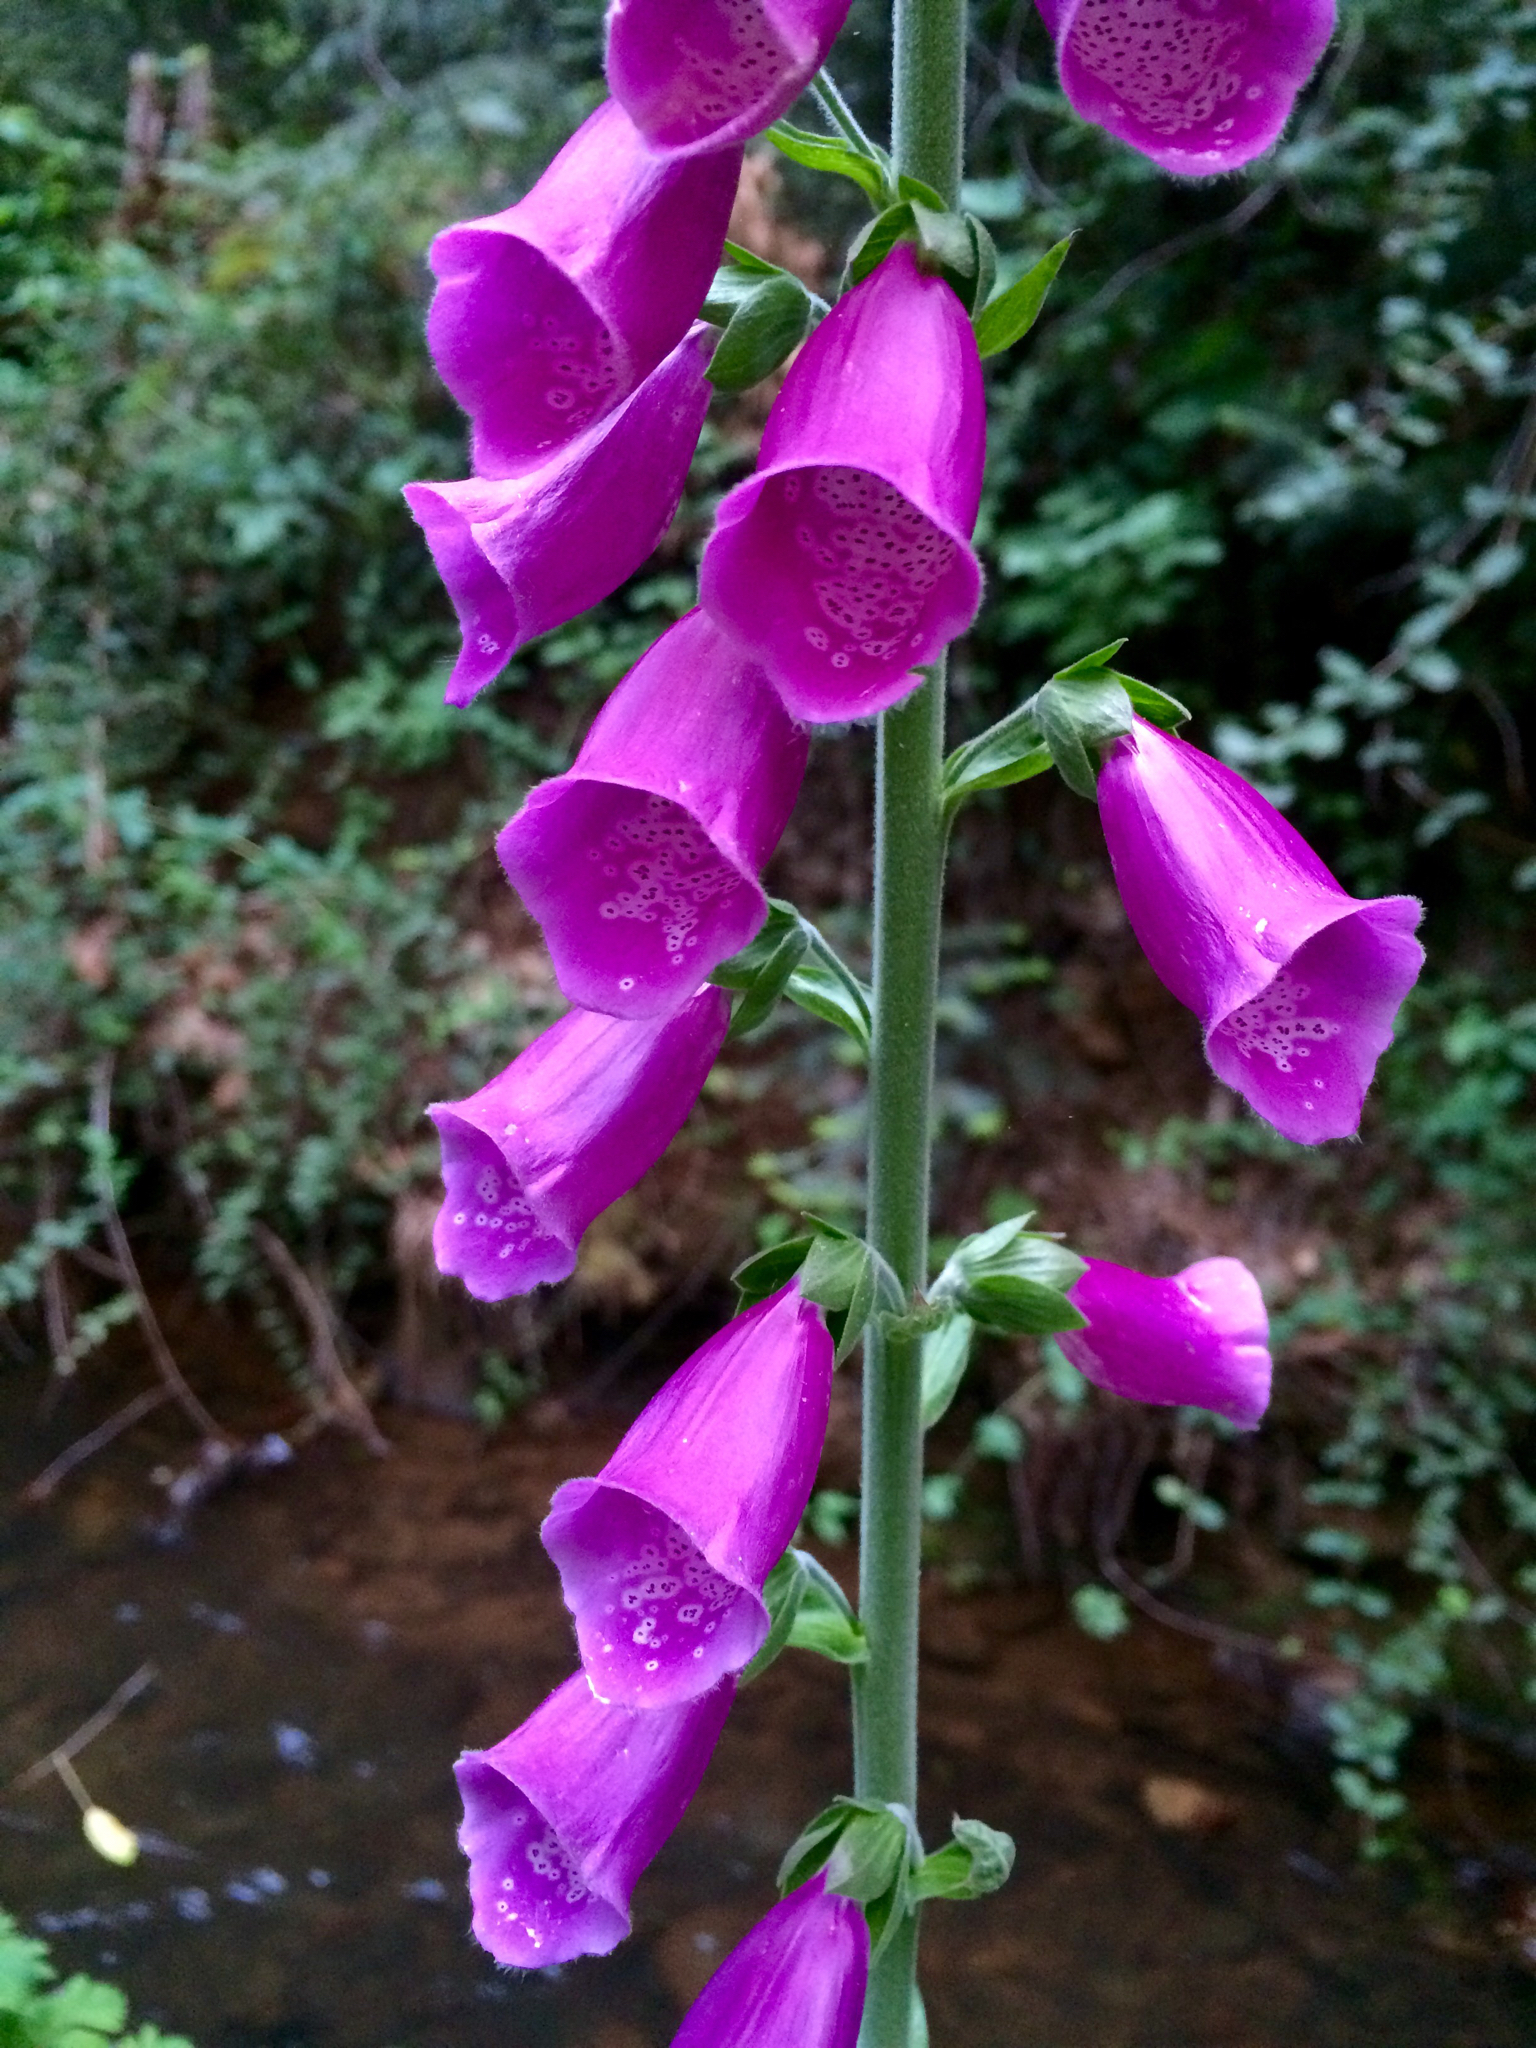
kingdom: Plantae
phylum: Tracheophyta
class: Magnoliopsida
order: Lamiales
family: Plantaginaceae
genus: Digitalis
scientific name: Digitalis purpurea
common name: Foxglove
